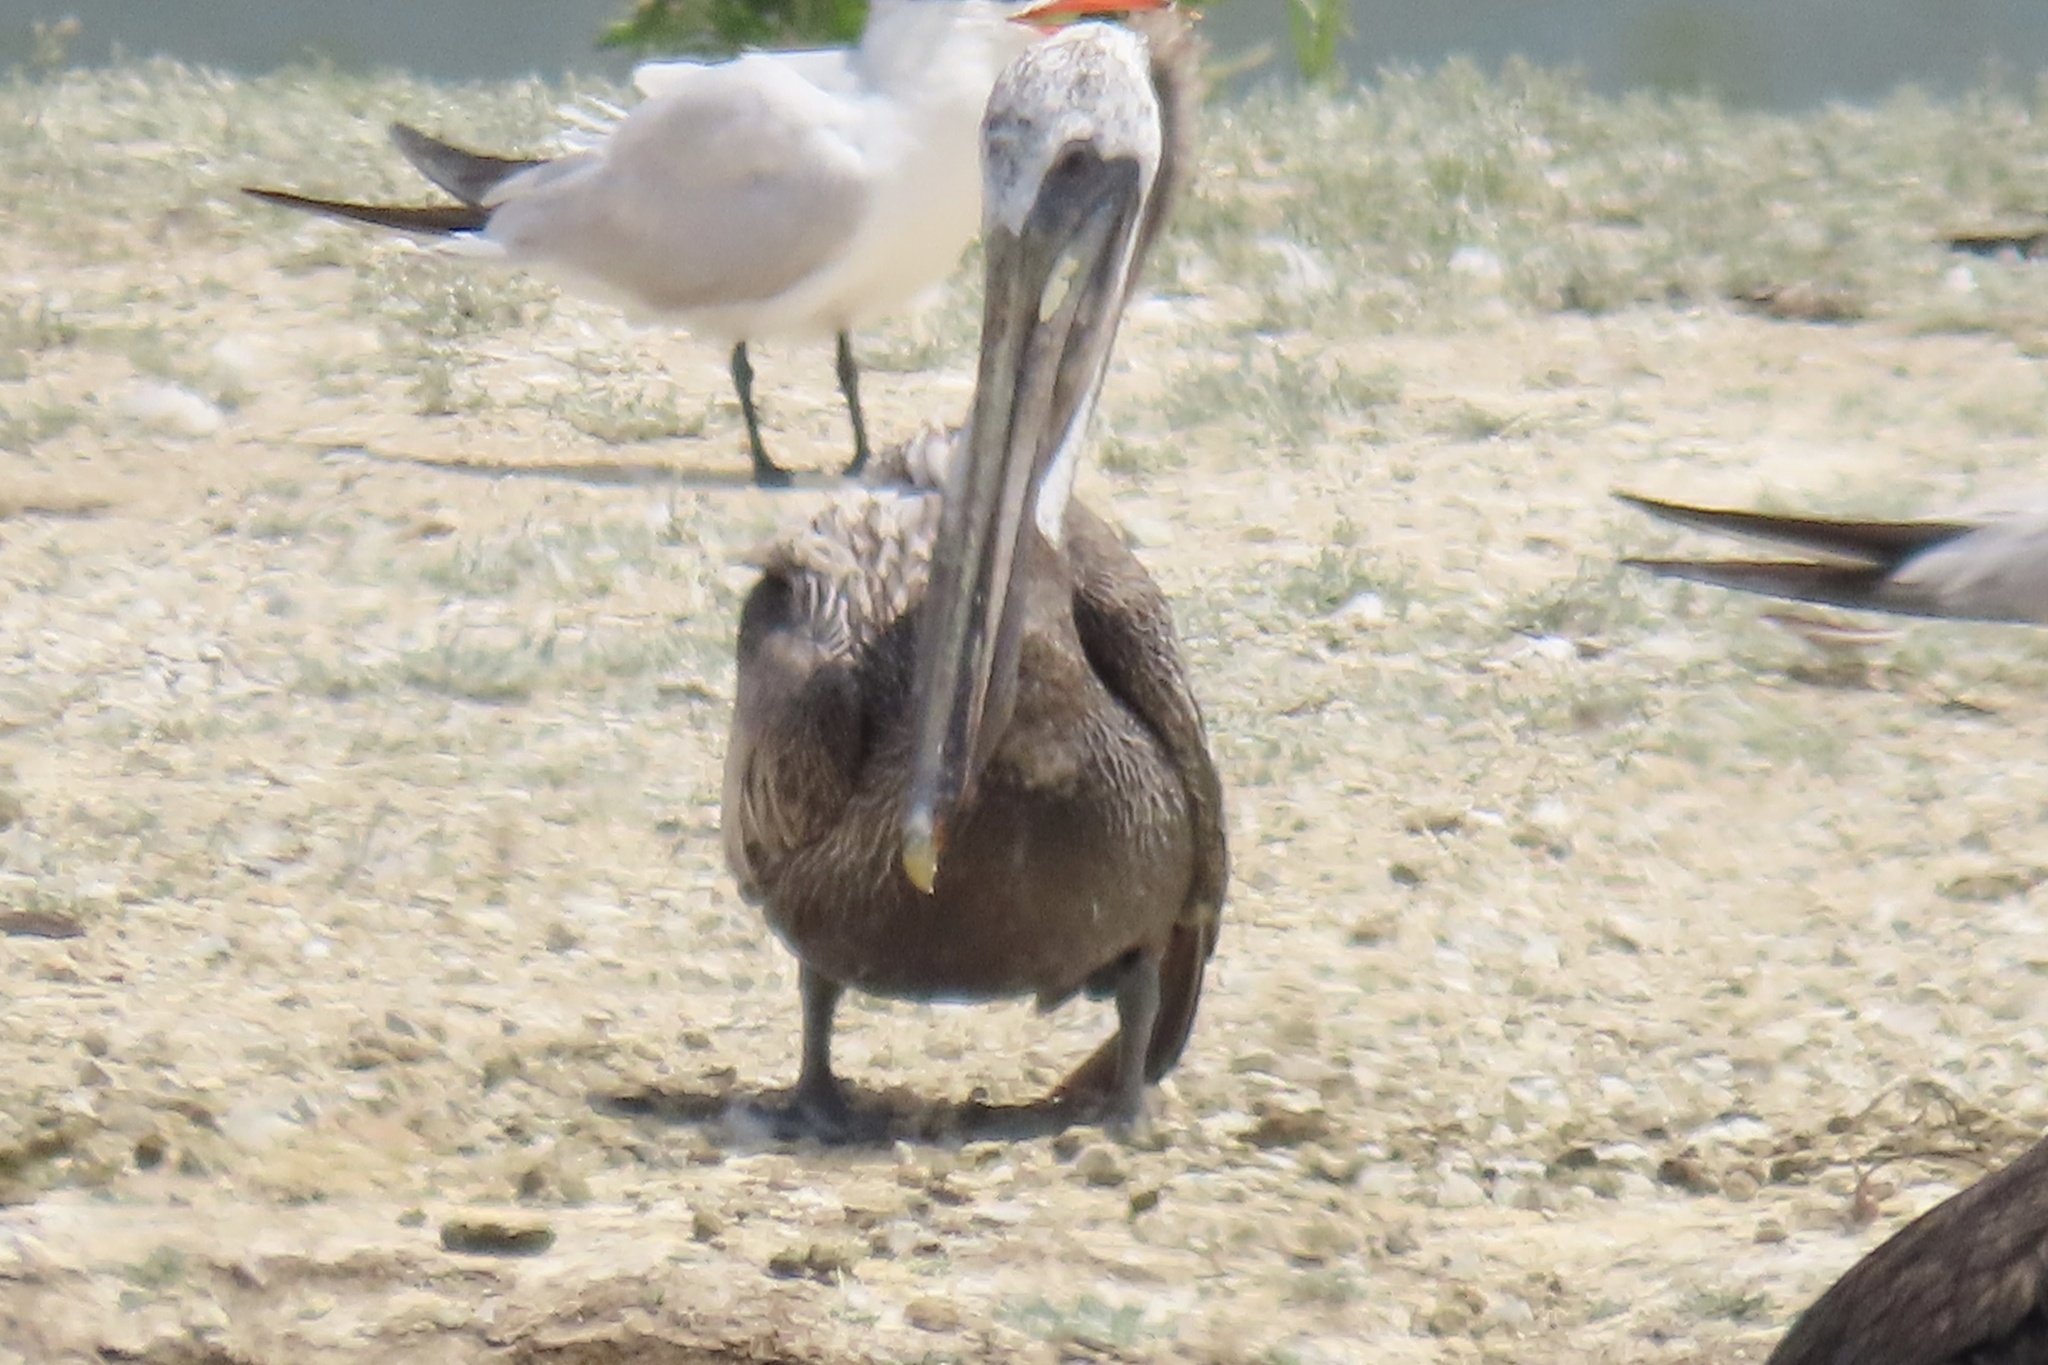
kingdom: Animalia
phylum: Chordata
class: Aves
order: Pelecaniformes
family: Pelecanidae
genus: Pelecanus
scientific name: Pelecanus occidentalis
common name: Brown pelican
